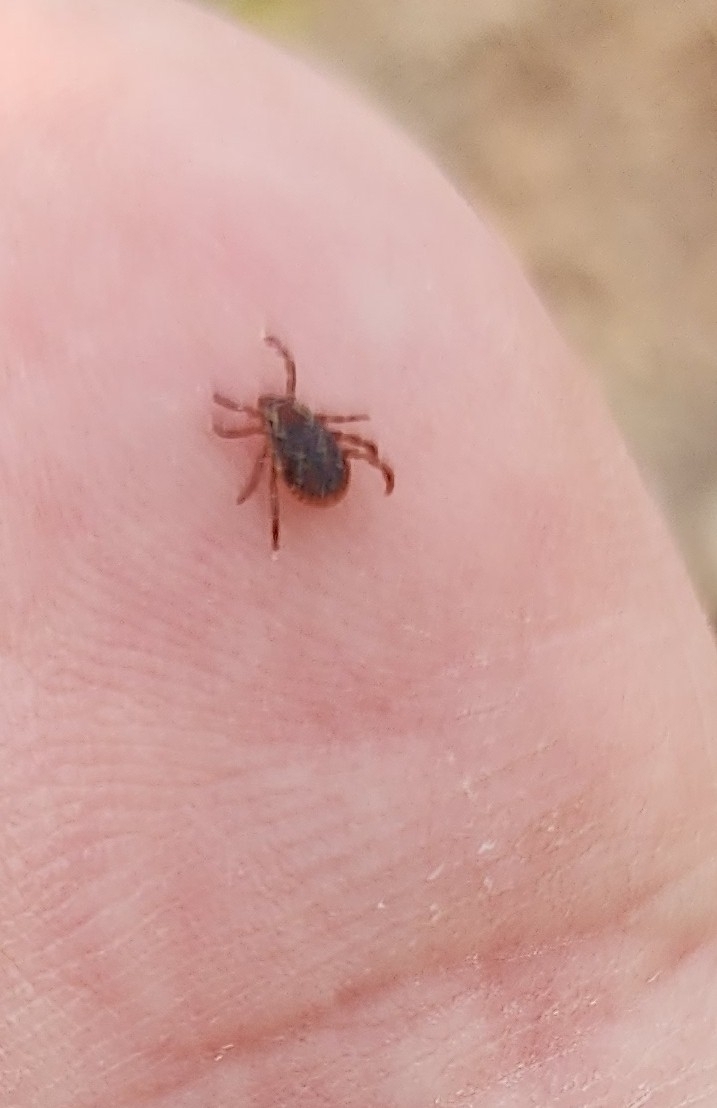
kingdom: Animalia
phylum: Arthropoda
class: Arachnida
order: Ixodida
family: Ixodidae
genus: Dermacentor
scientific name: Dermacentor variabilis
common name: American dog tick
